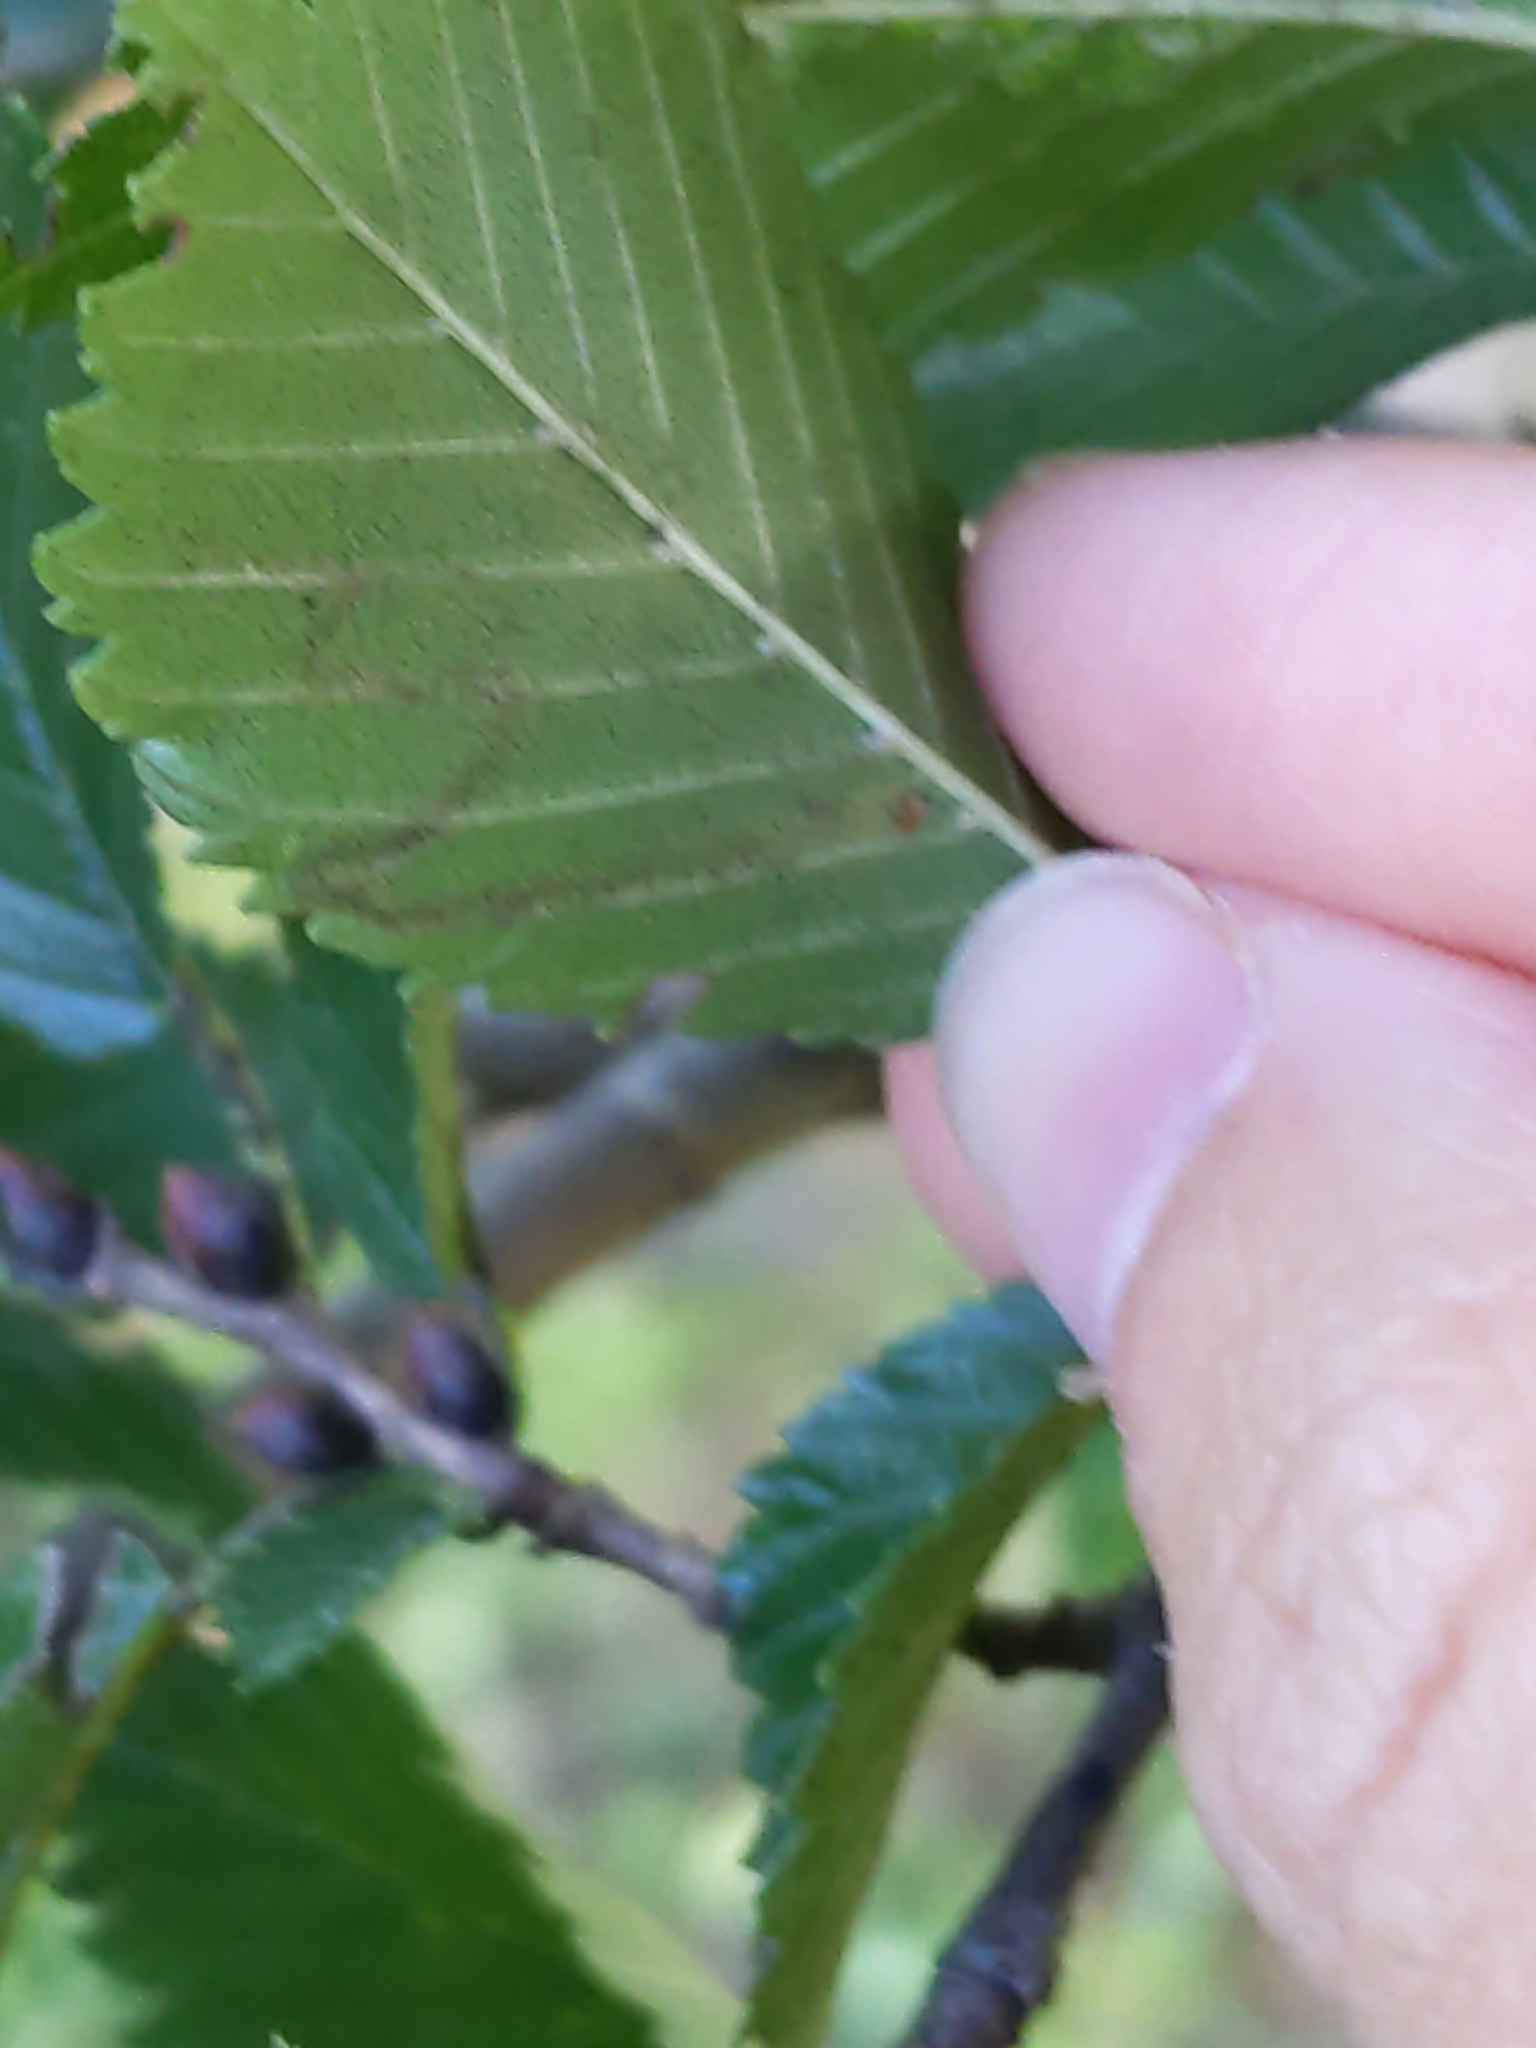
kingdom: Animalia
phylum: Arthropoda
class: Insecta
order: Lepidoptera
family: Nepticulidae
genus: Stigmella
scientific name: Stigmella multispicata
